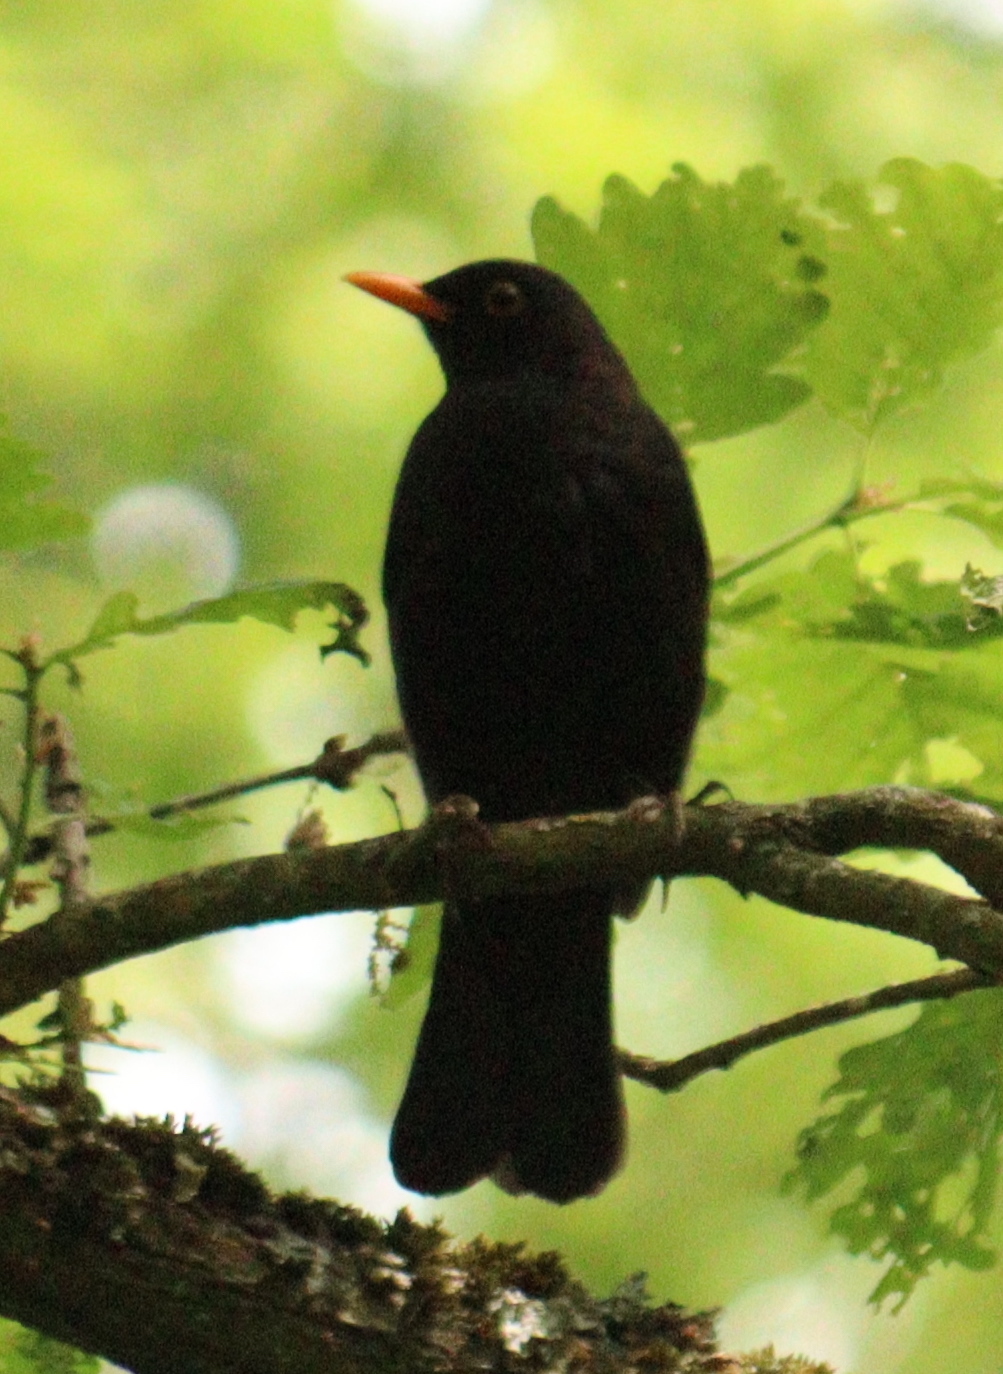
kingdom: Animalia
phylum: Chordata
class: Aves
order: Passeriformes
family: Turdidae
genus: Turdus
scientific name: Turdus merula
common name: Common blackbird
